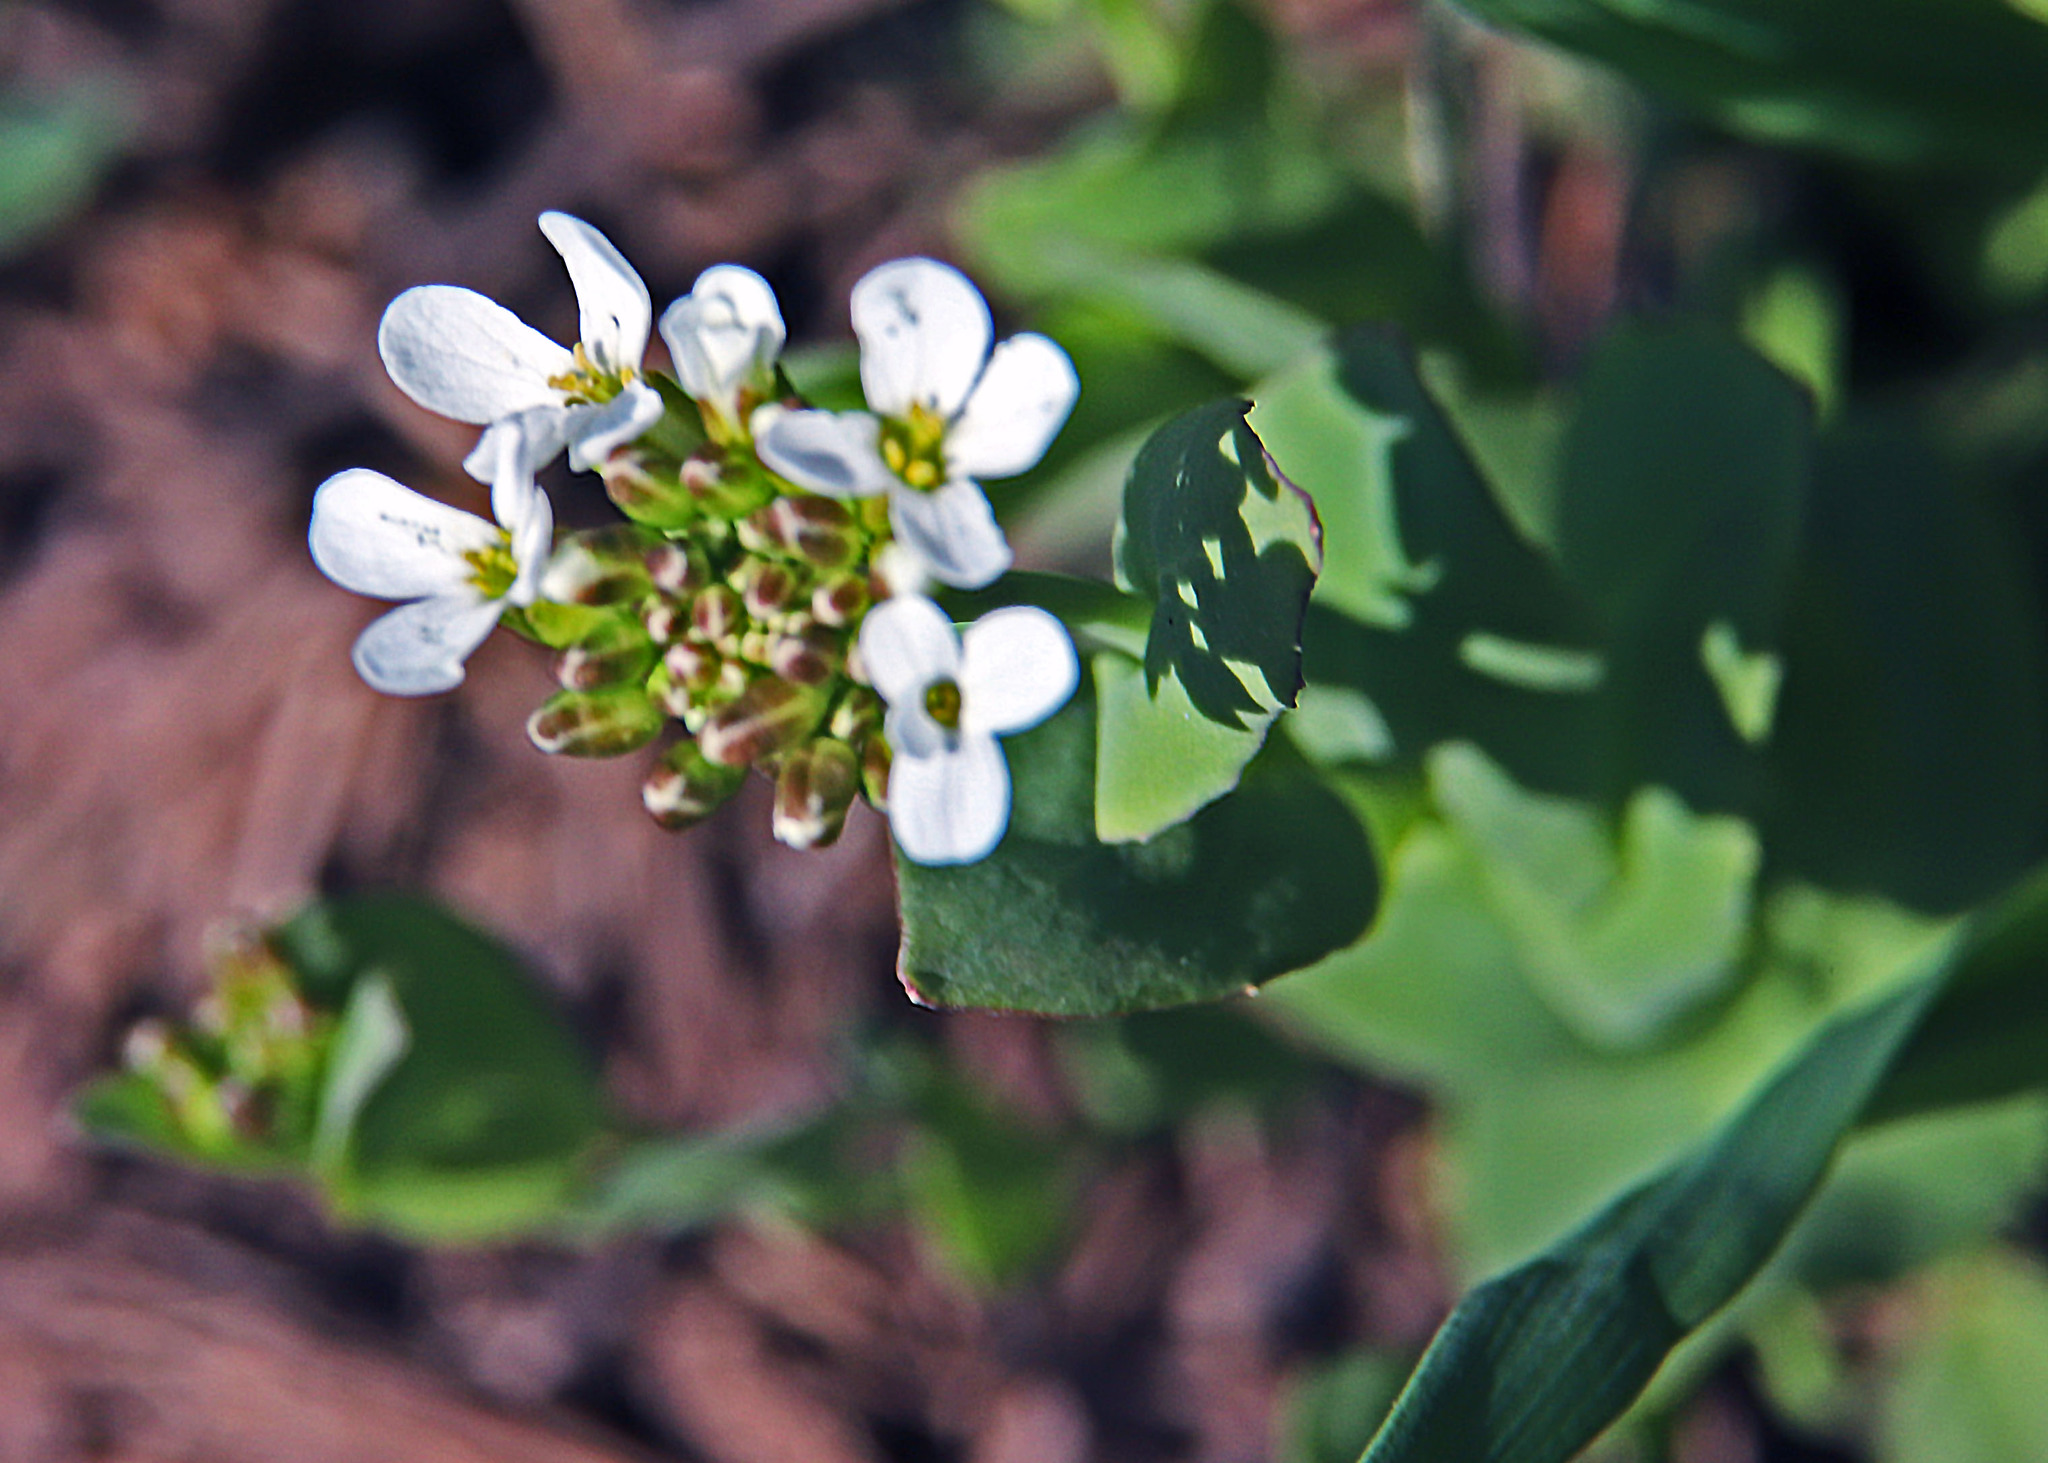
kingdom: Plantae
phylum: Tracheophyta
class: Magnoliopsida
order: Brassicales
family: Brassicaceae
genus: Noccaea
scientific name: Noccaea fendleri
